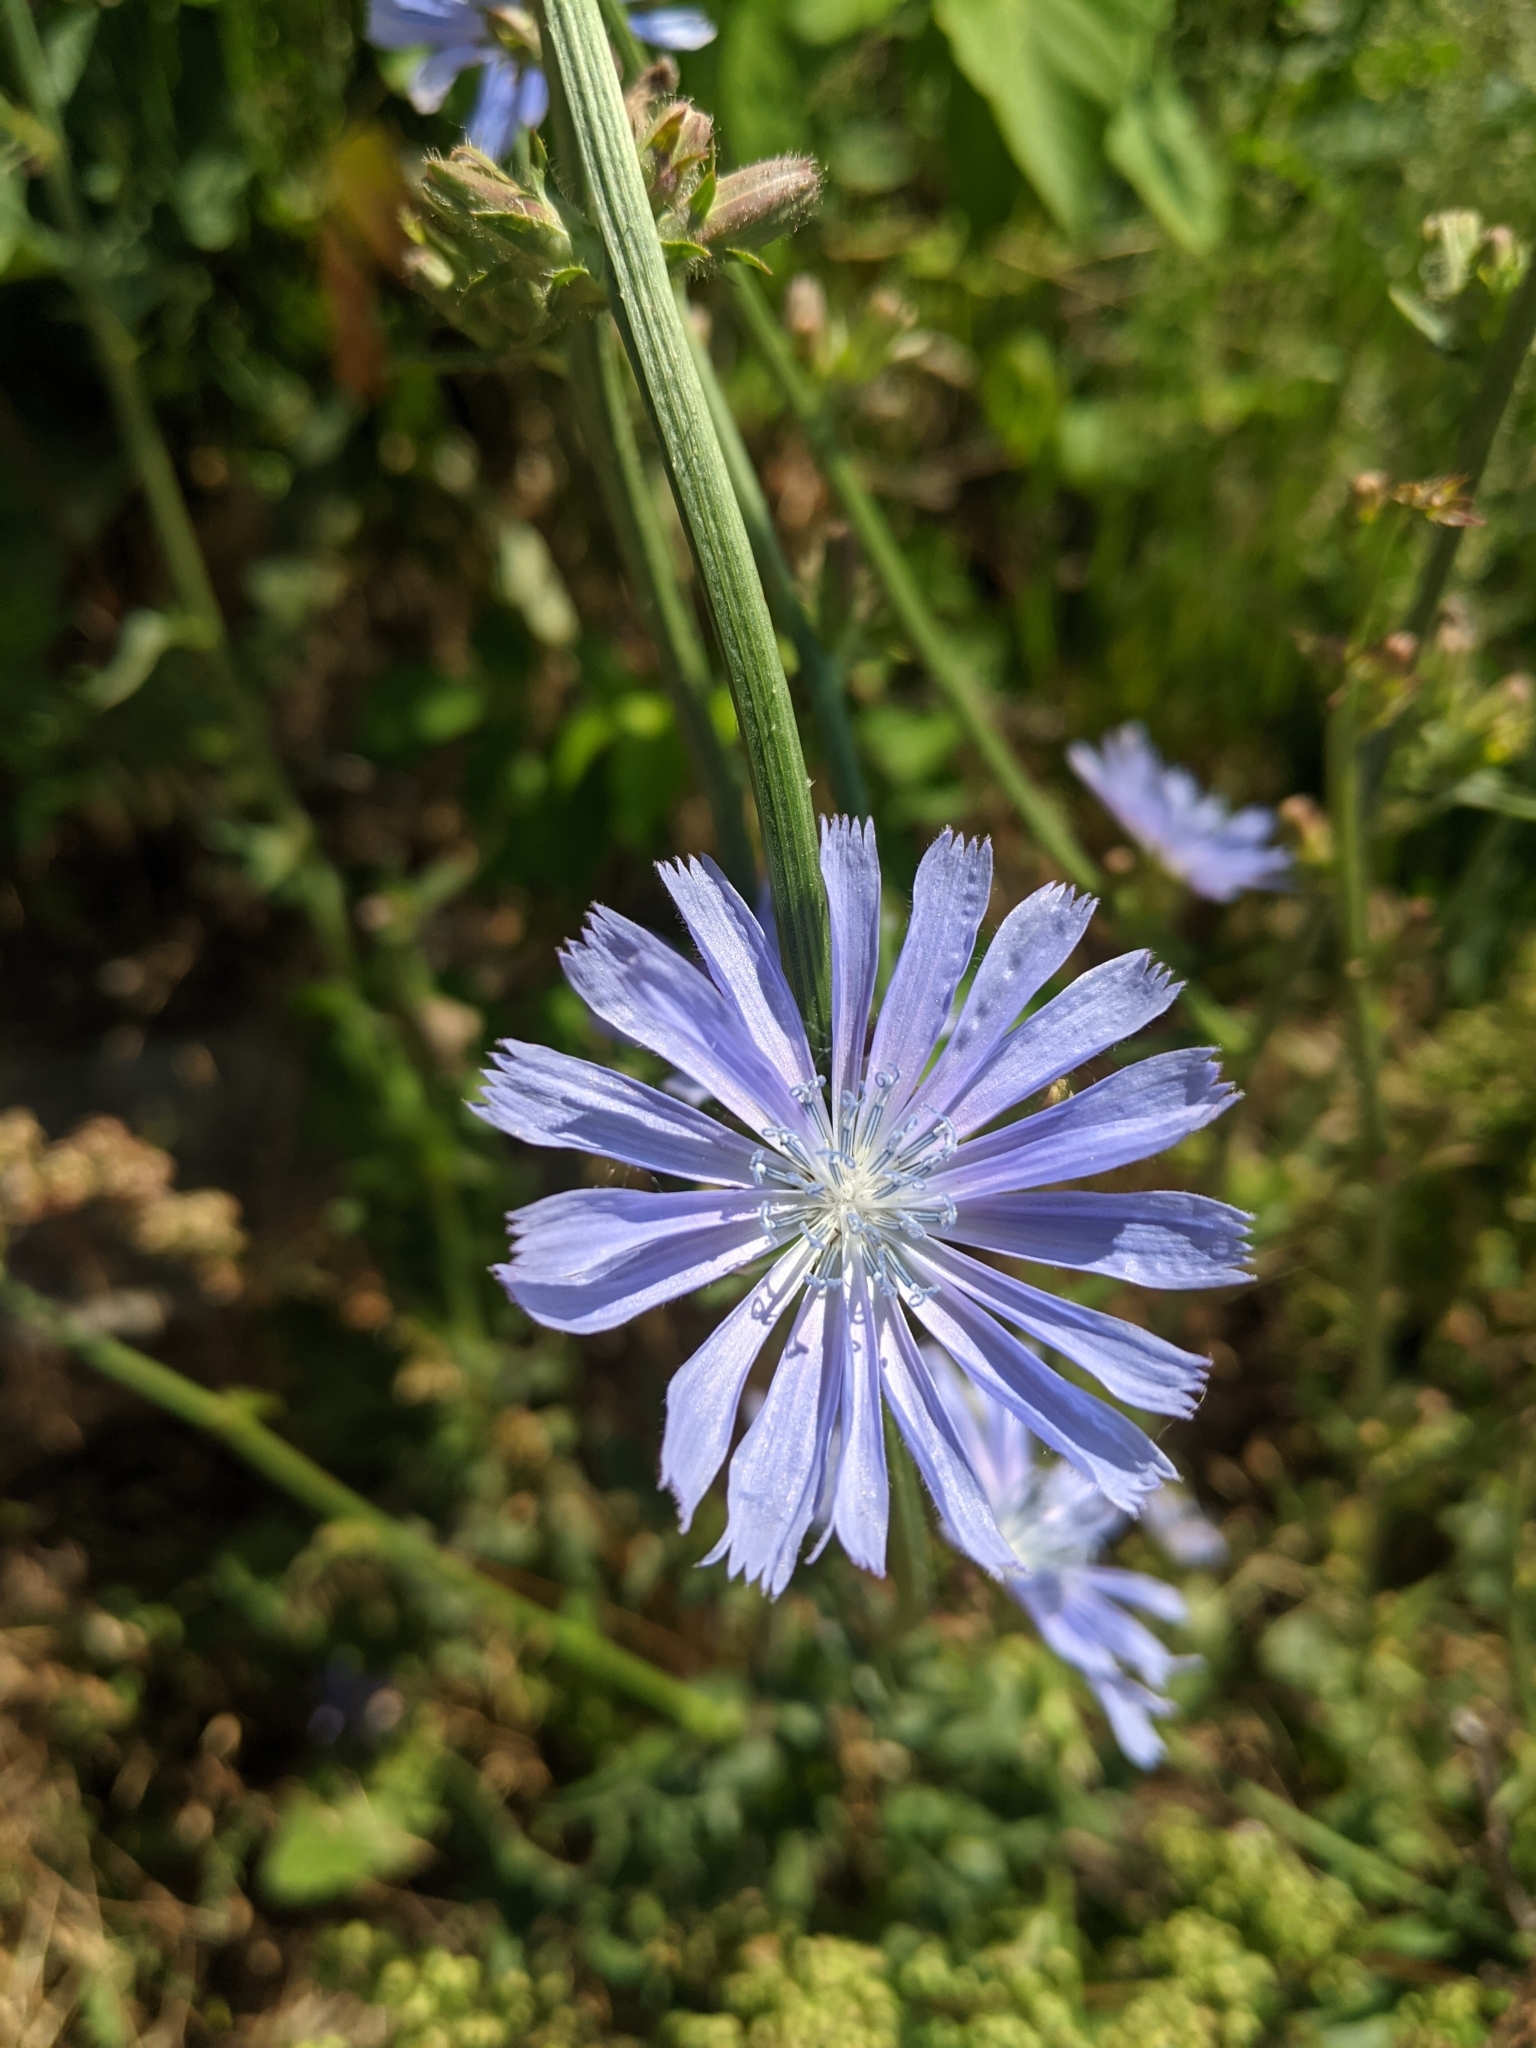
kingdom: Plantae
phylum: Tracheophyta
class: Magnoliopsida
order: Asterales
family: Asteraceae
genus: Cichorium
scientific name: Cichorium intybus
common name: Chicory
